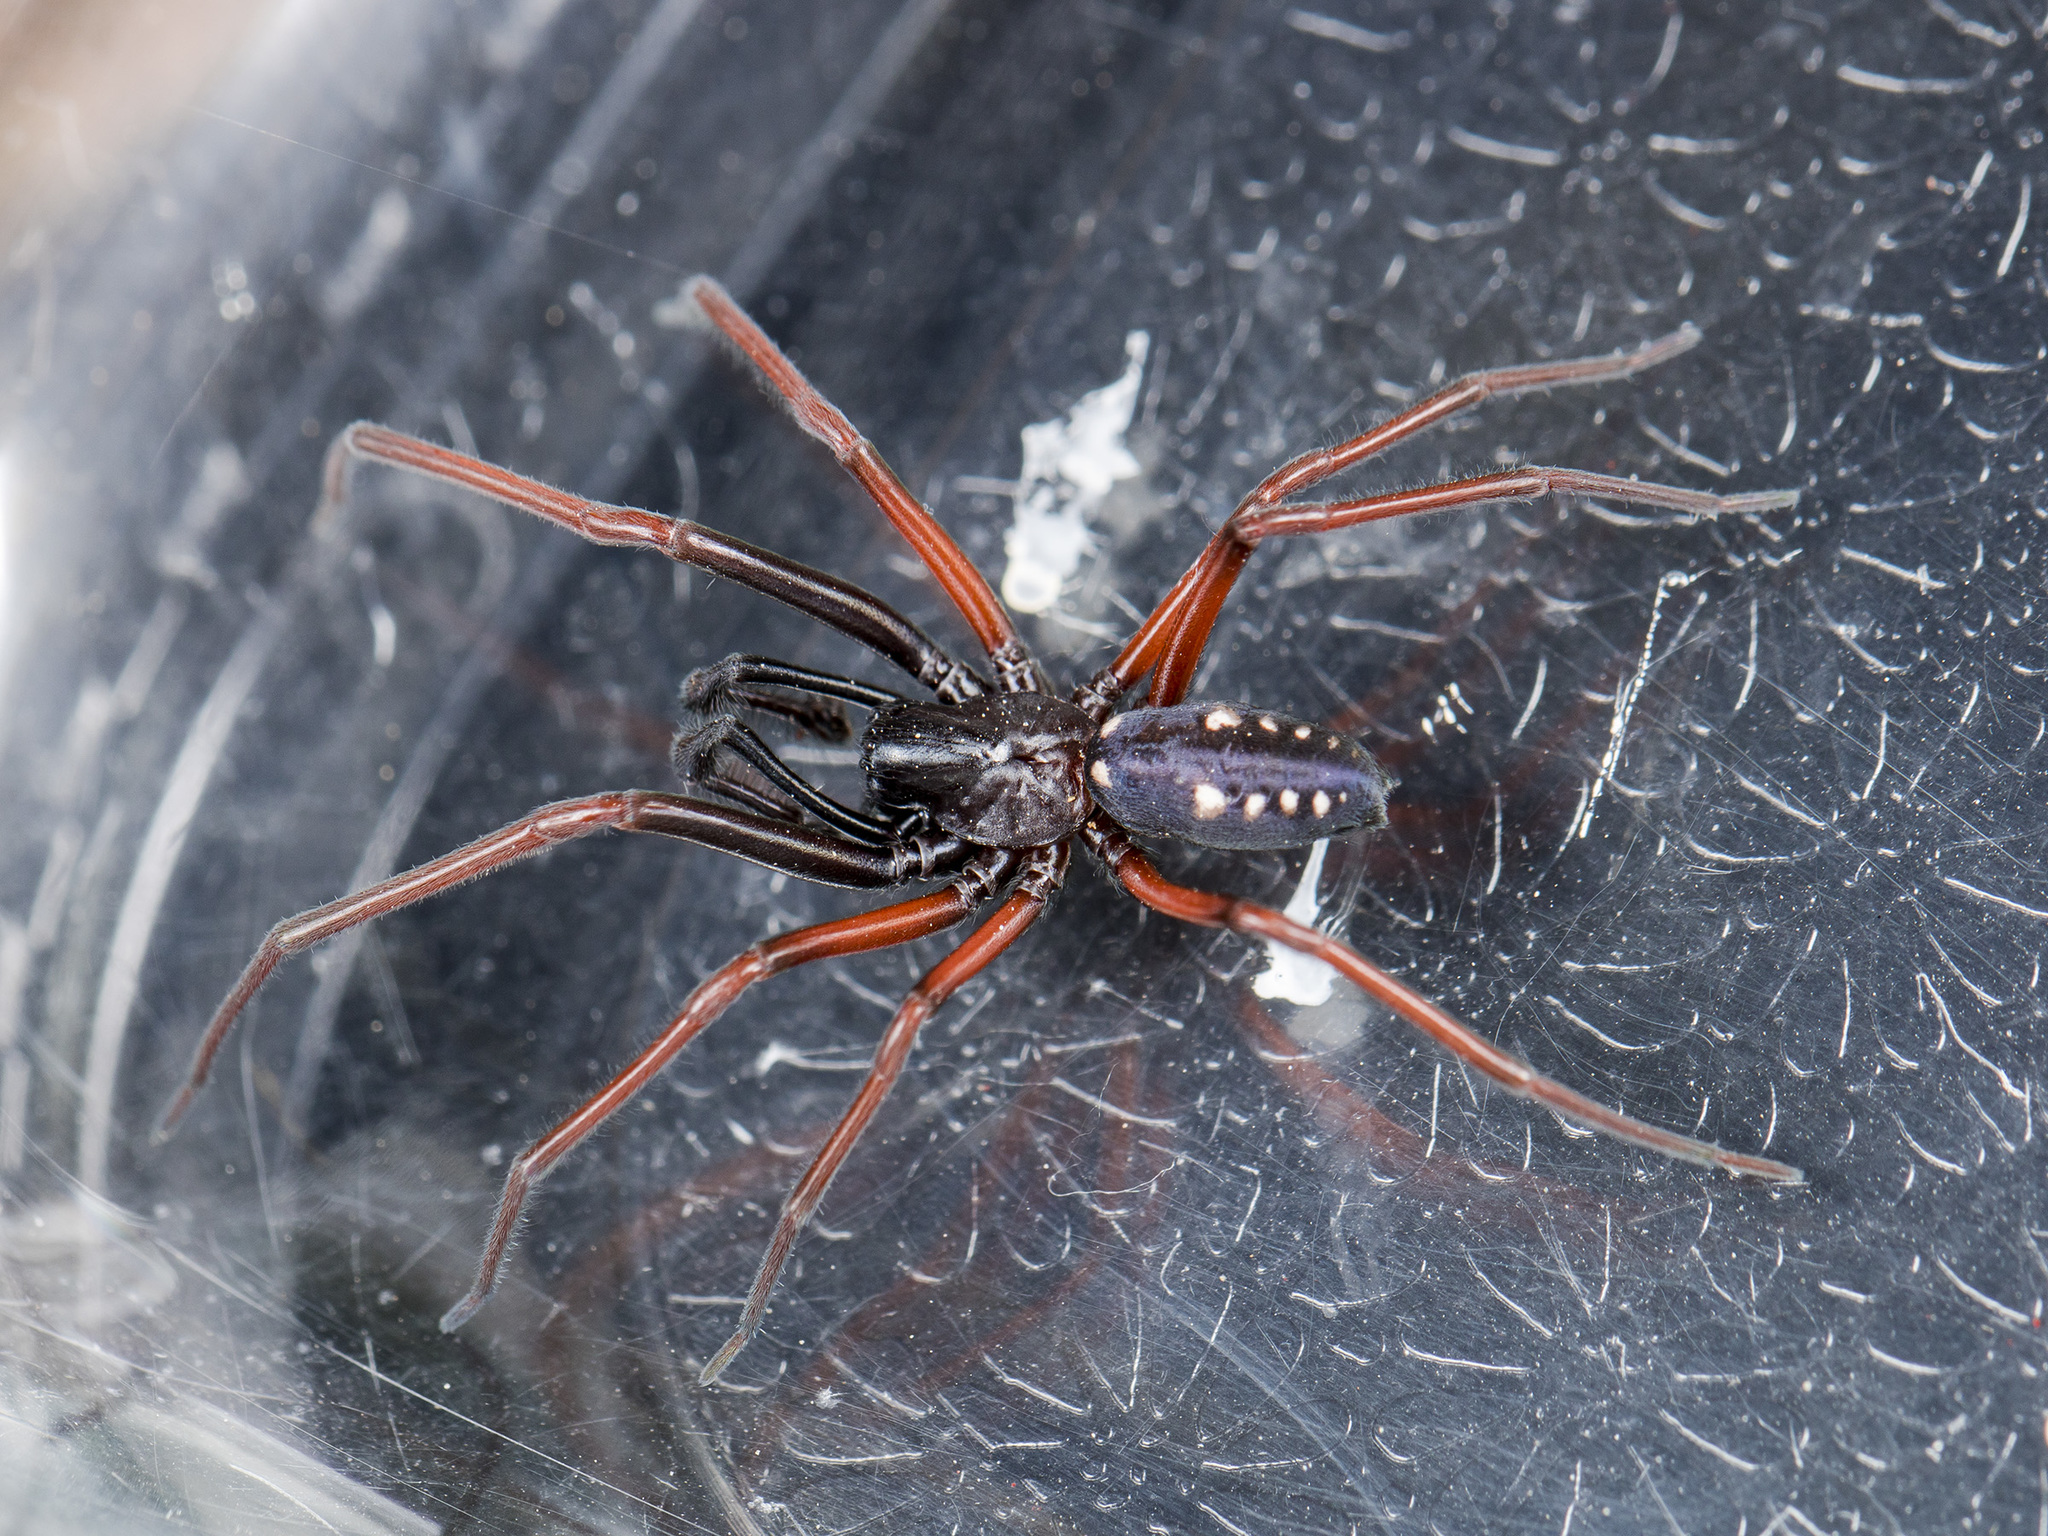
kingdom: Animalia
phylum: Arthropoda
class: Arachnida
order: Araneae
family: Titanoecidae
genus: Nurscia
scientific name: Nurscia albosignata
